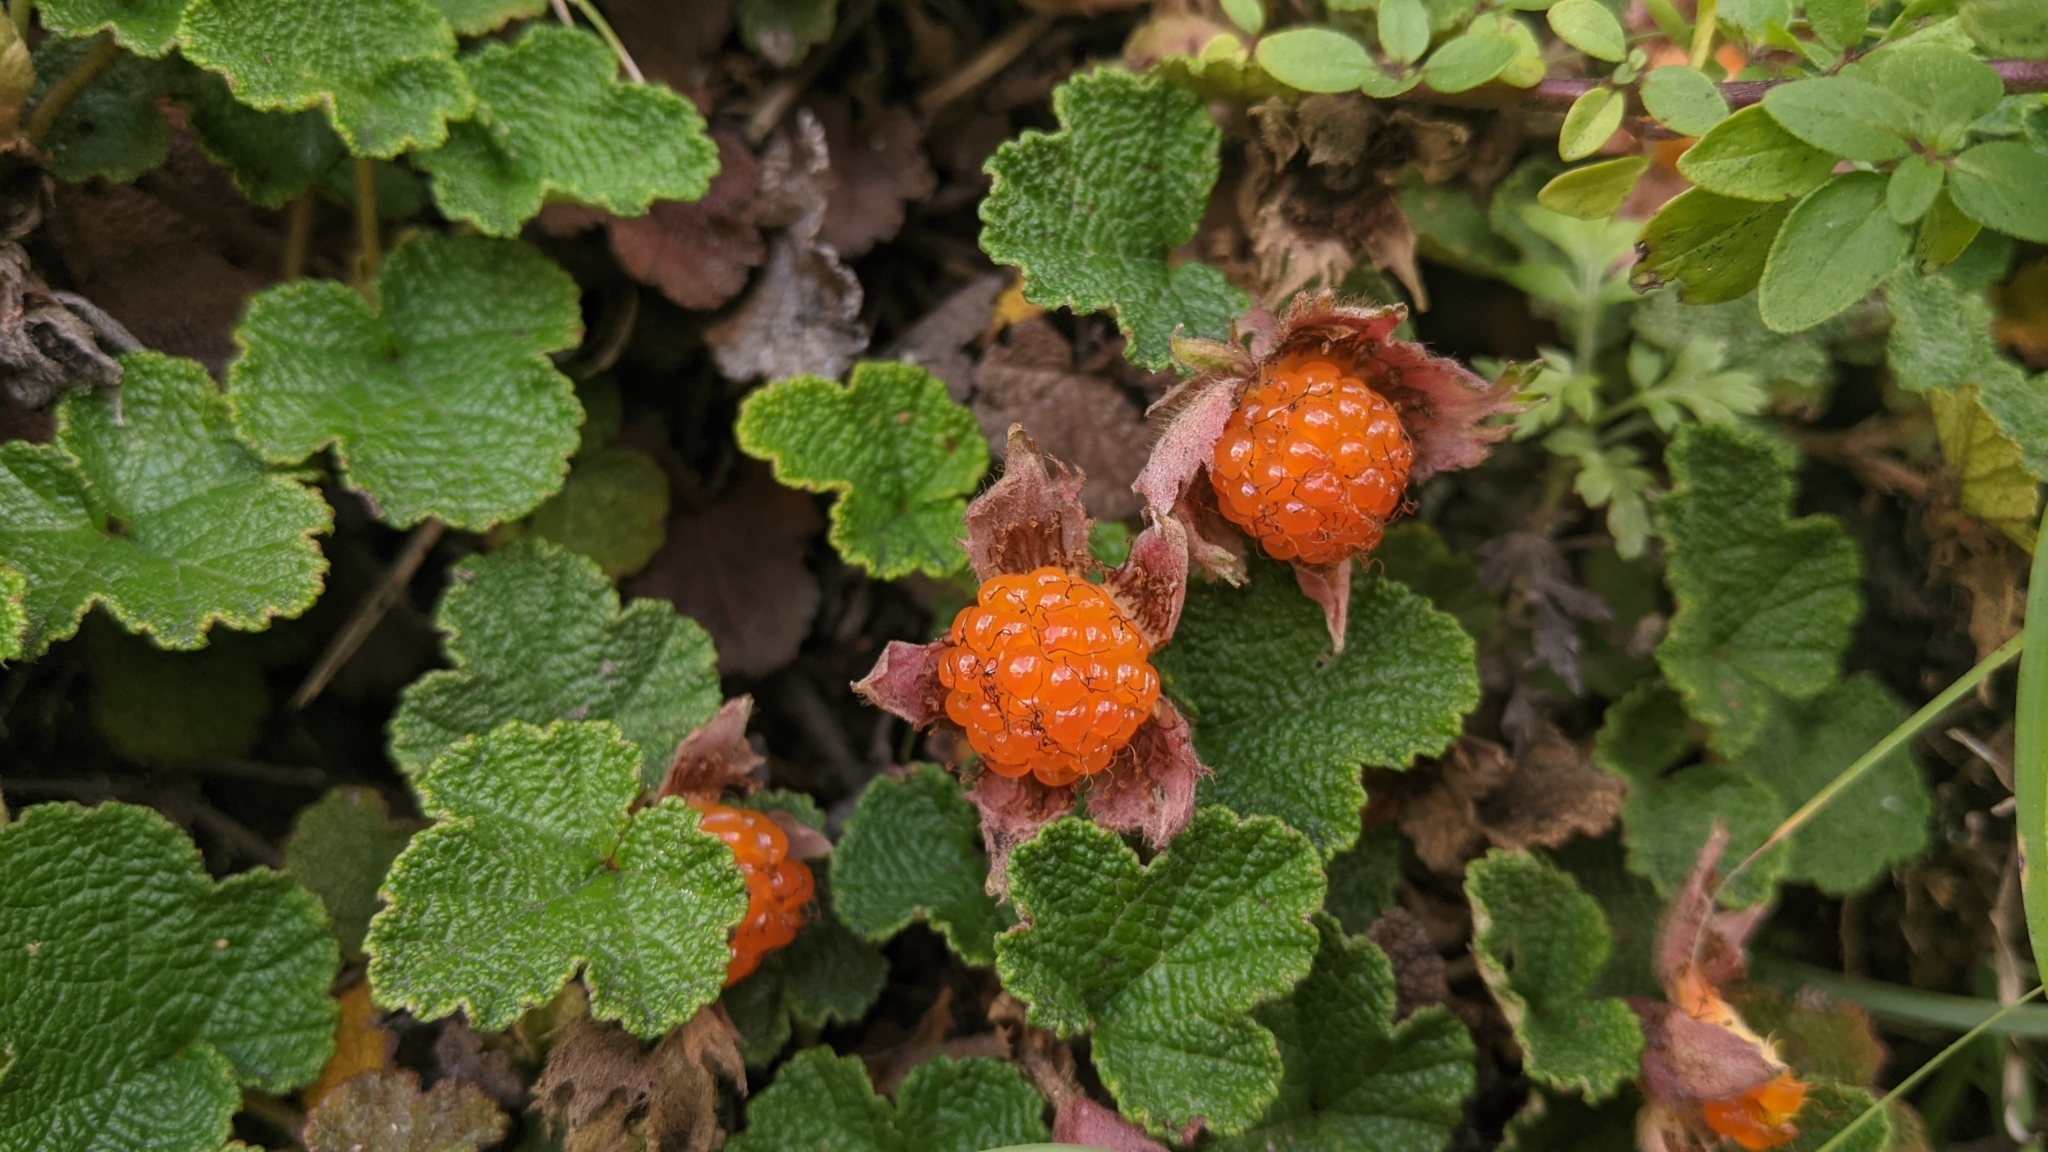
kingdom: Plantae
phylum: Tracheophyta
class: Magnoliopsida
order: Rosales
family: Rosaceae
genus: Rubus
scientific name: Rubus rolfei
